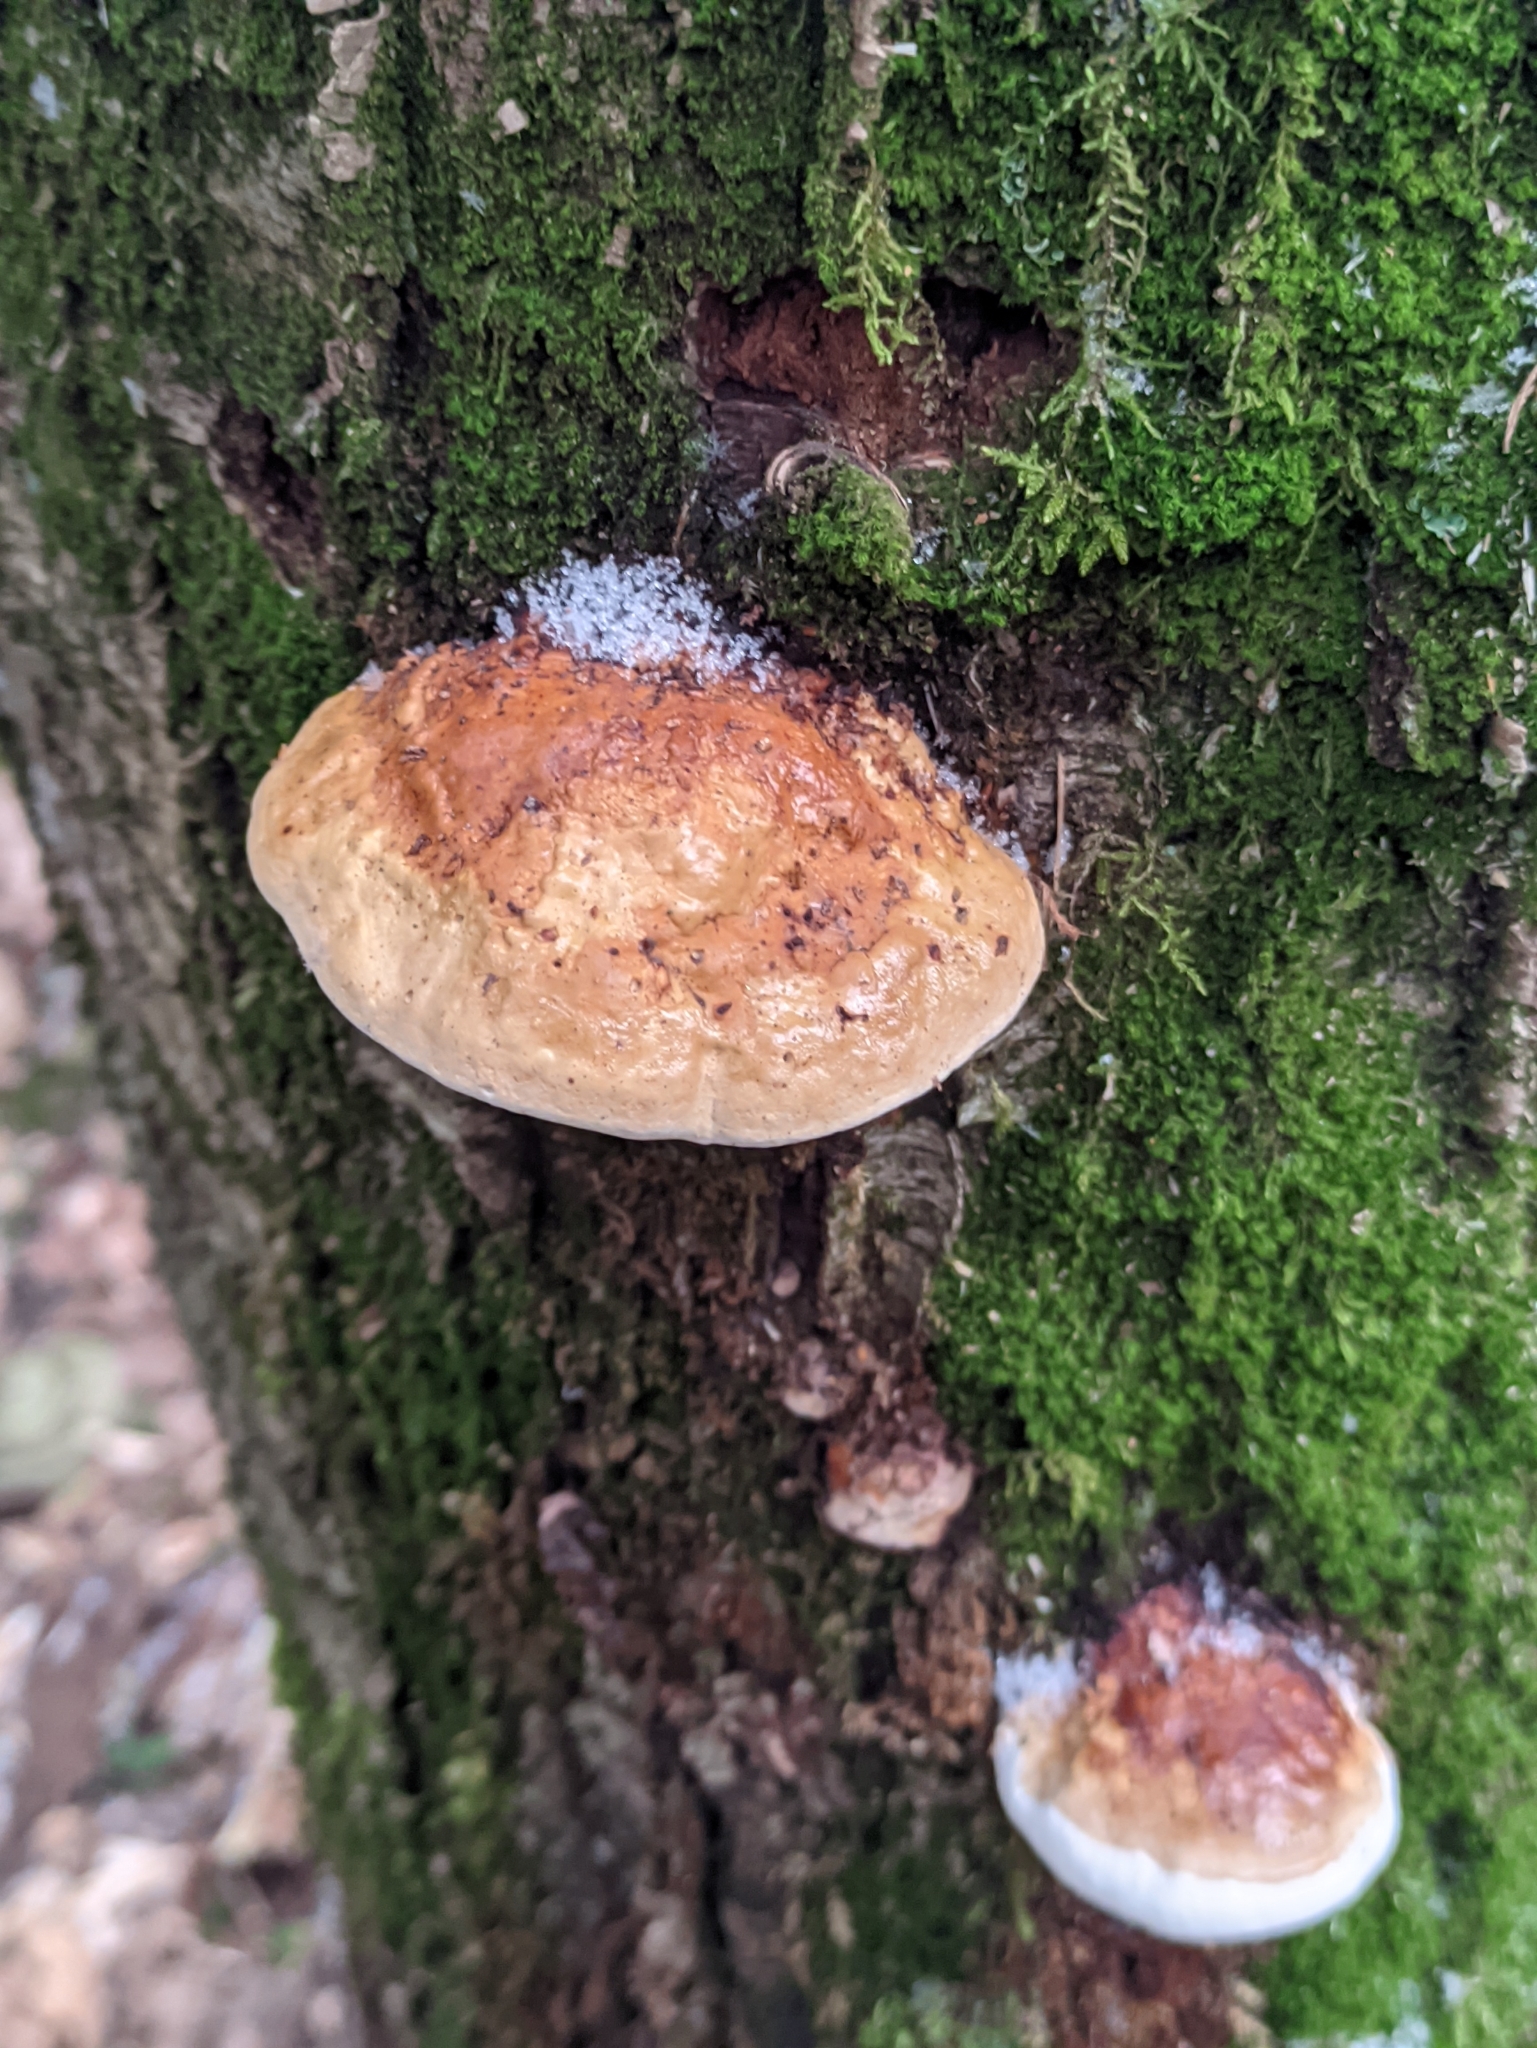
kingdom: Fungi
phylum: Basidiomycota
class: Agaricomycetes
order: Polyporales
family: Fomitopsidaceae
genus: Fomitopsis
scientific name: Fomitopsis pinicola
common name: Red-belted bracket
